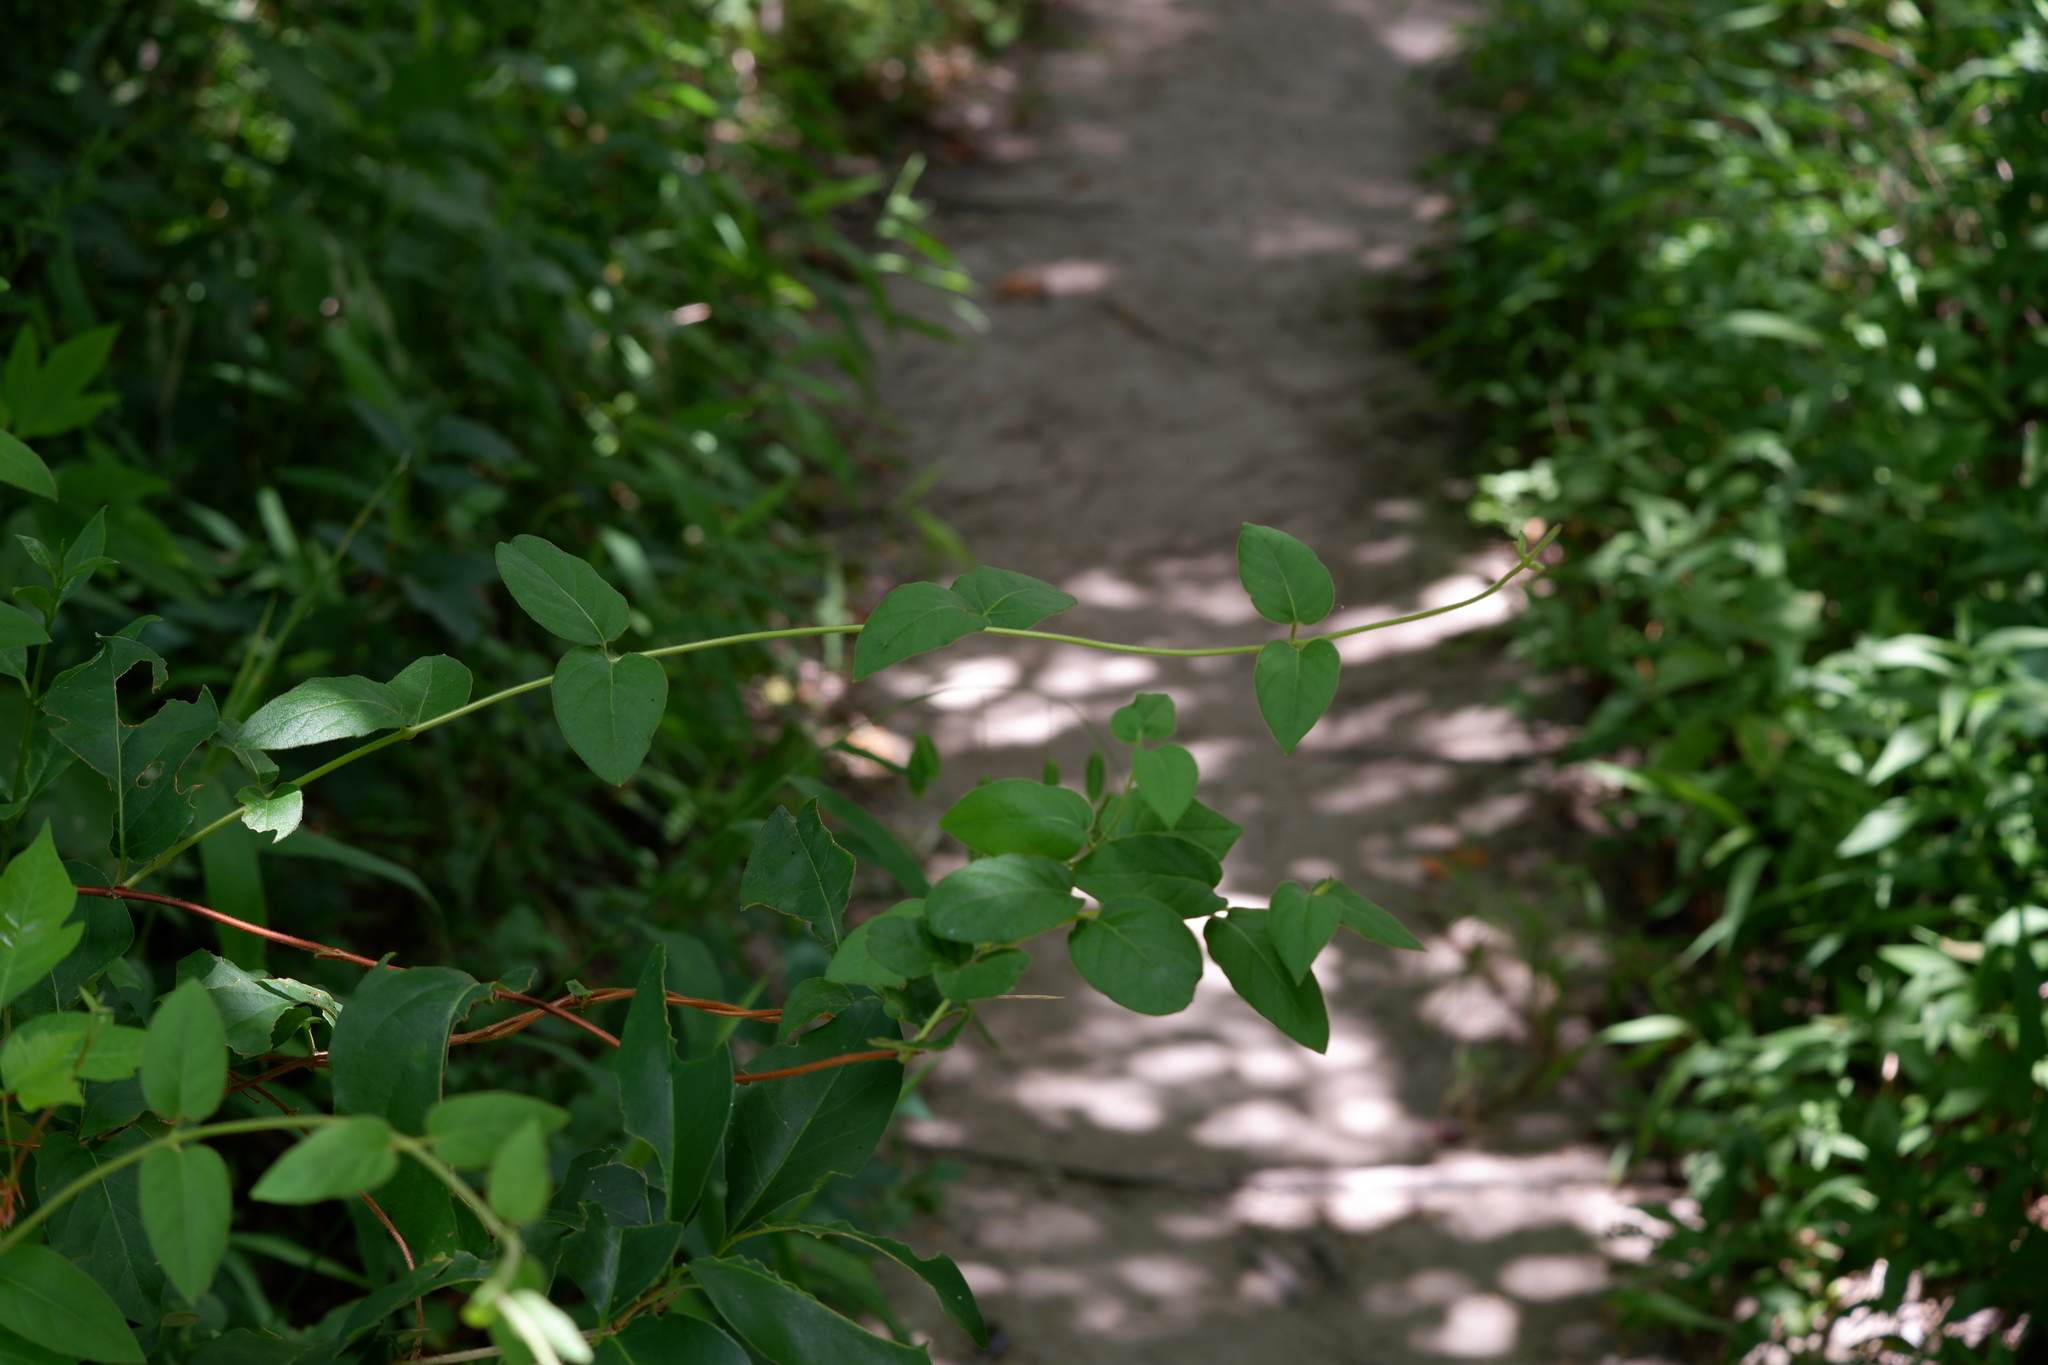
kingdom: Plantae
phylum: Tracheophyta
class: Magnoliopsida
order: Dipsacales
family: Caprifoliaceae
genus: Lonicera
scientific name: Lonicera japonica
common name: Japanese honeysuckle
